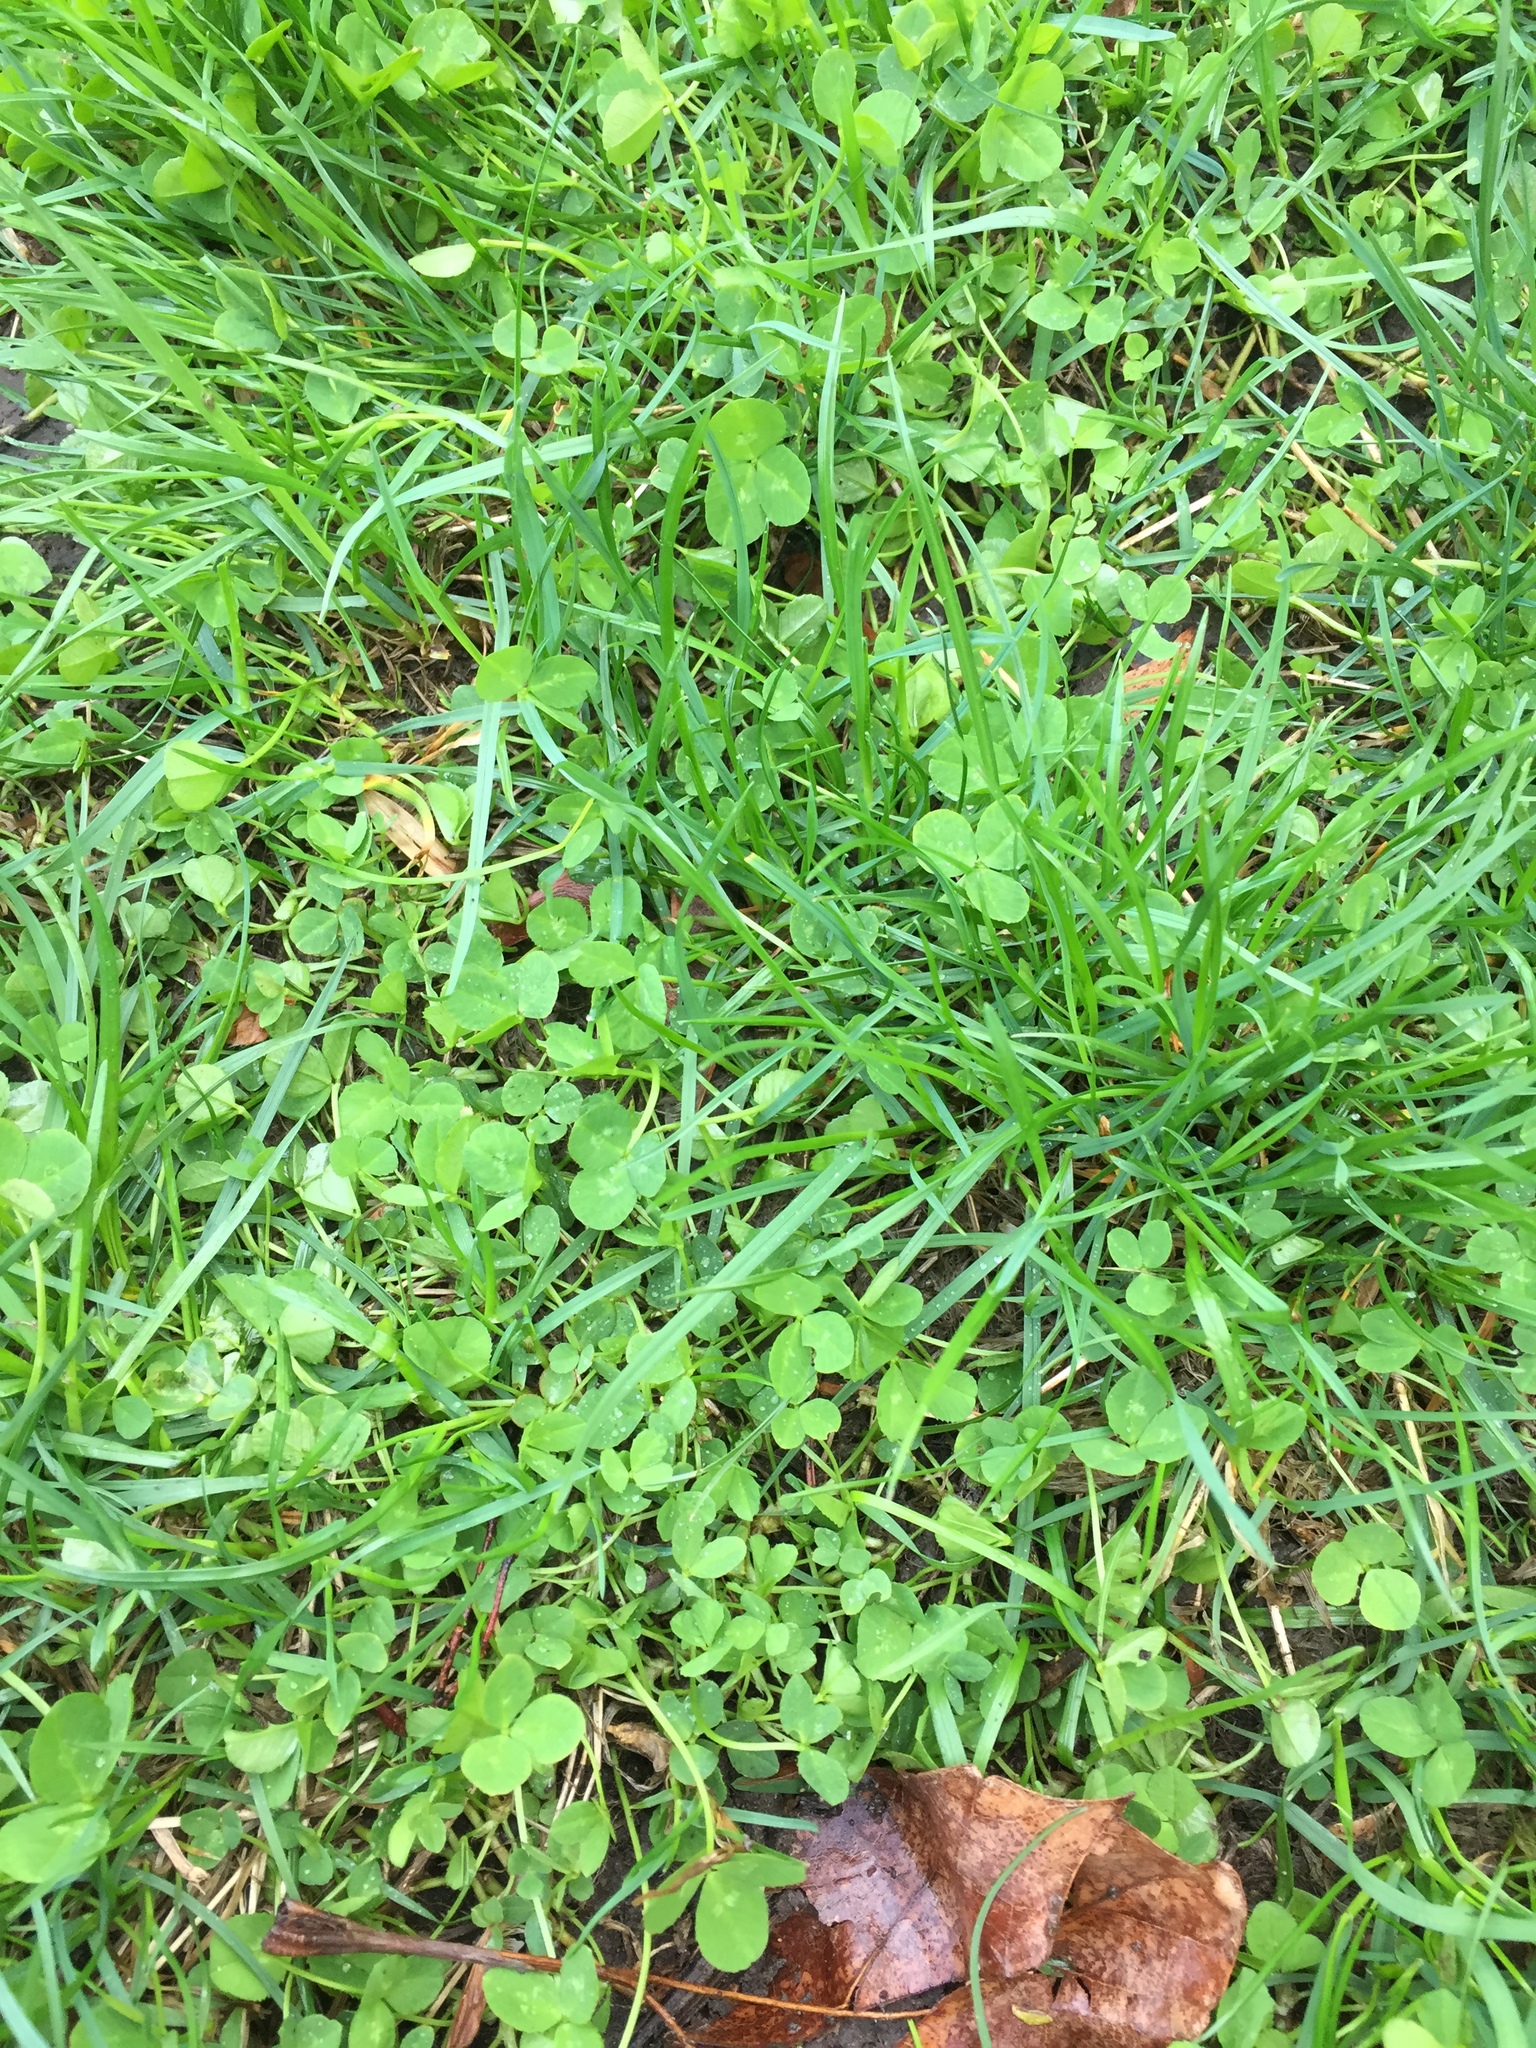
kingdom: Plantae
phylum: Tracheophyta
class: Magnoliopsida
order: Fabales
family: Fabaceae
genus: Trifolium
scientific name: Trifolium repens
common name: White clover
